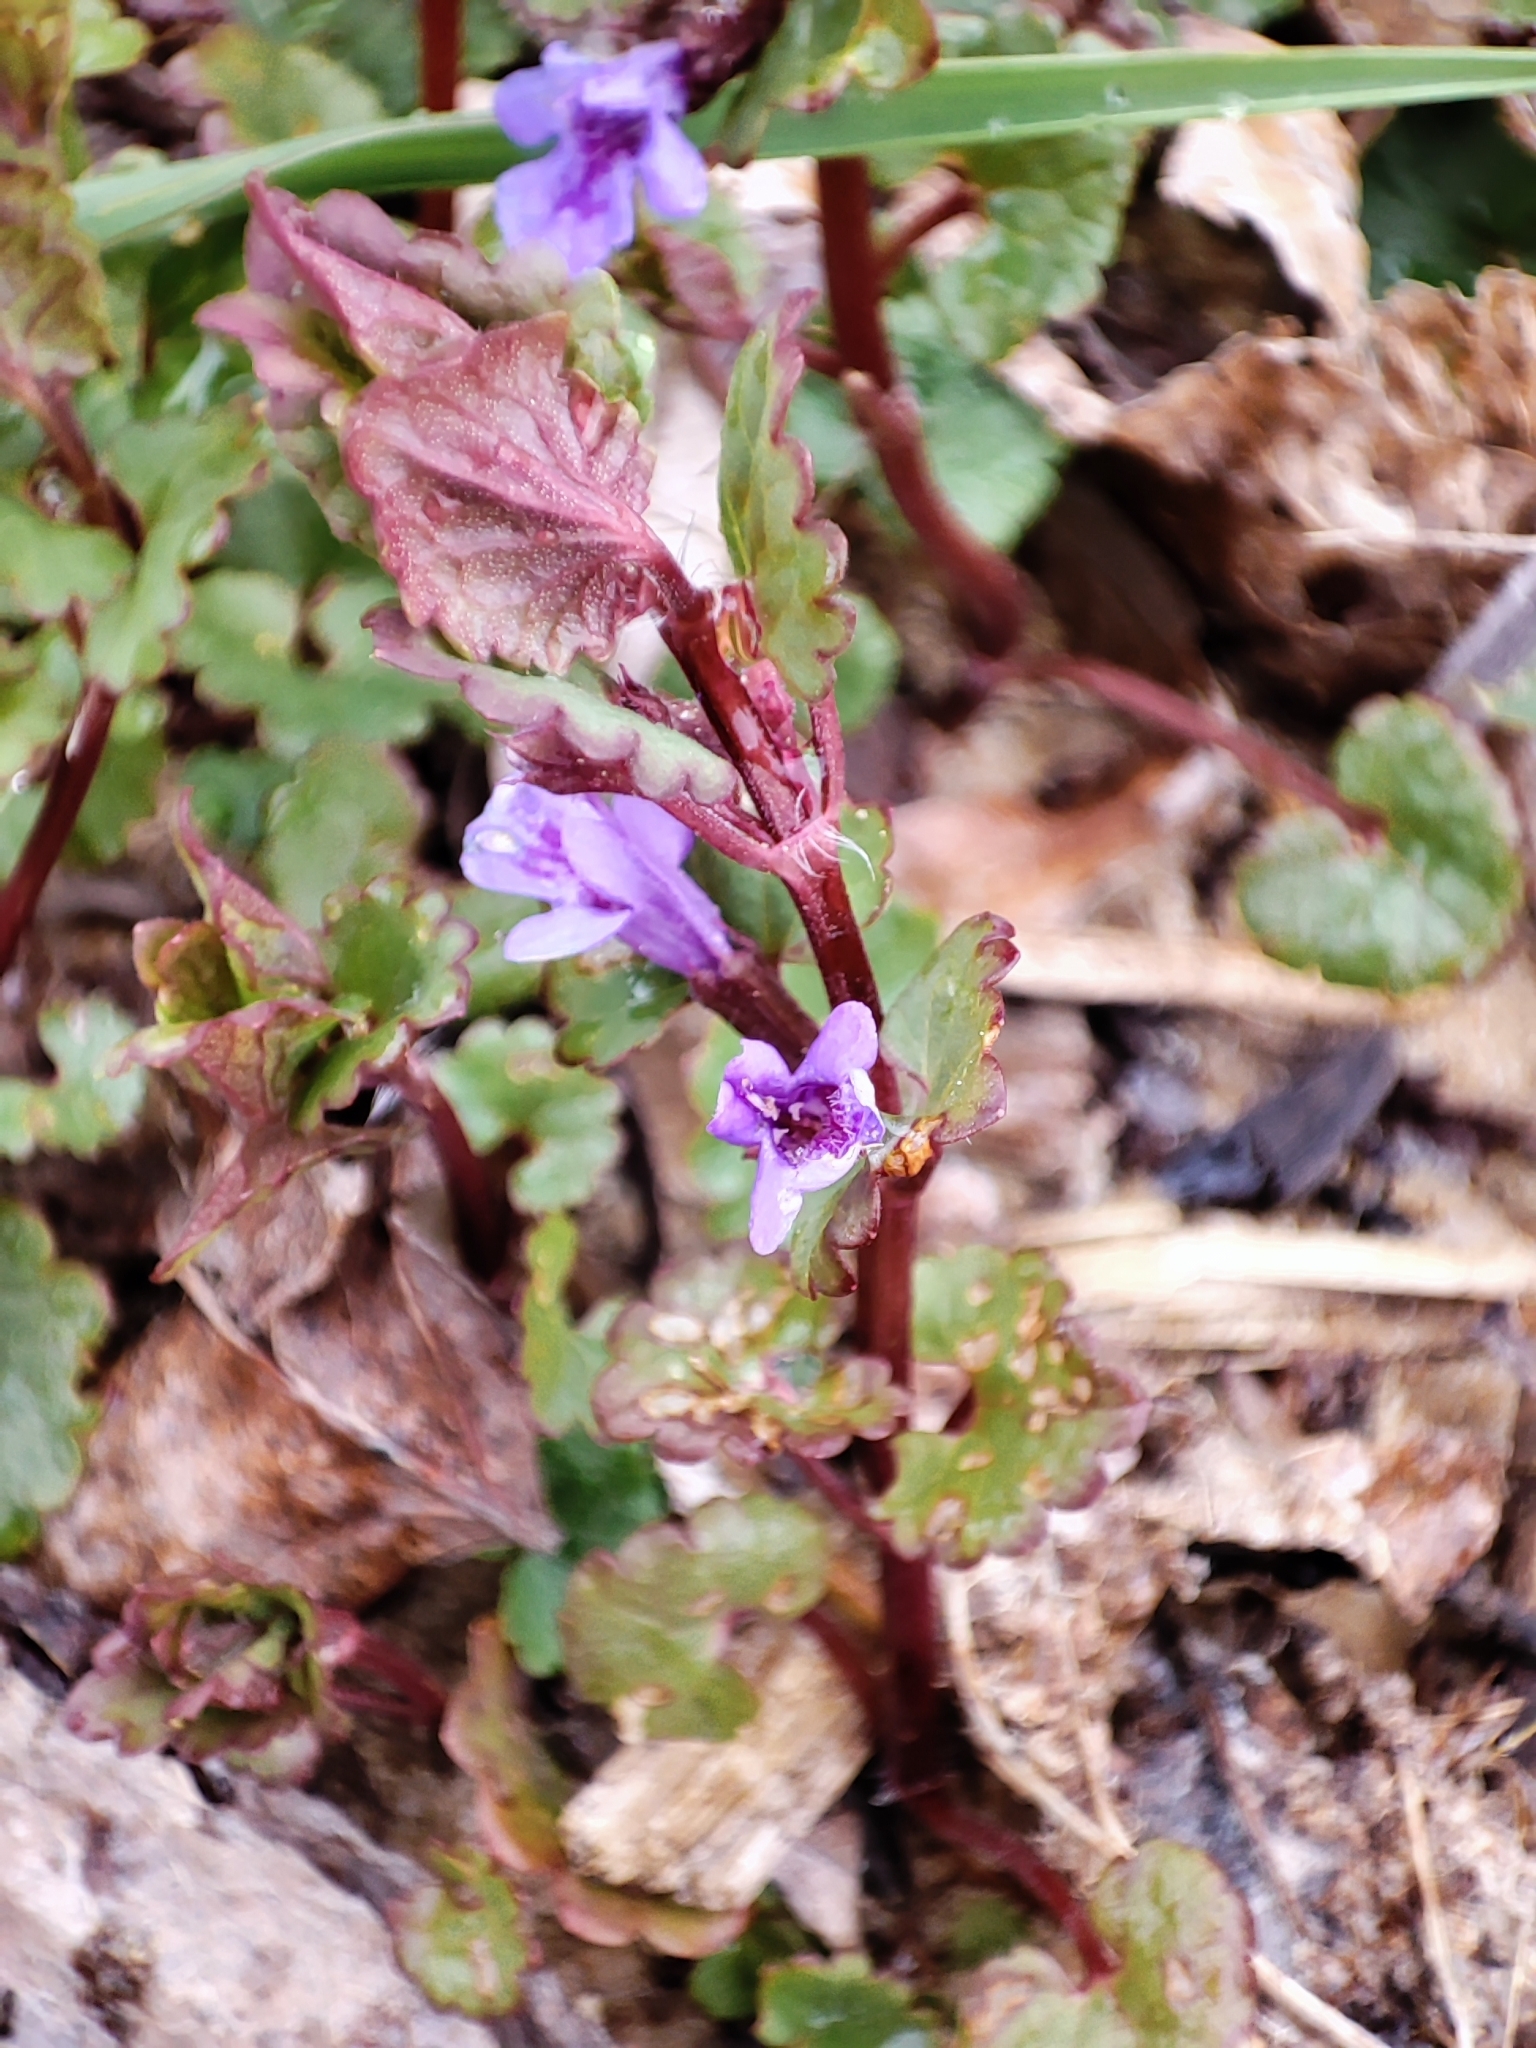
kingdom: Plantae
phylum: Tracheophyta
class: Magnoliopsida
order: Lamiales
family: Lamiaceae
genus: Glechoma
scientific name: Glechoma hederacea
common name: Ground ivy
